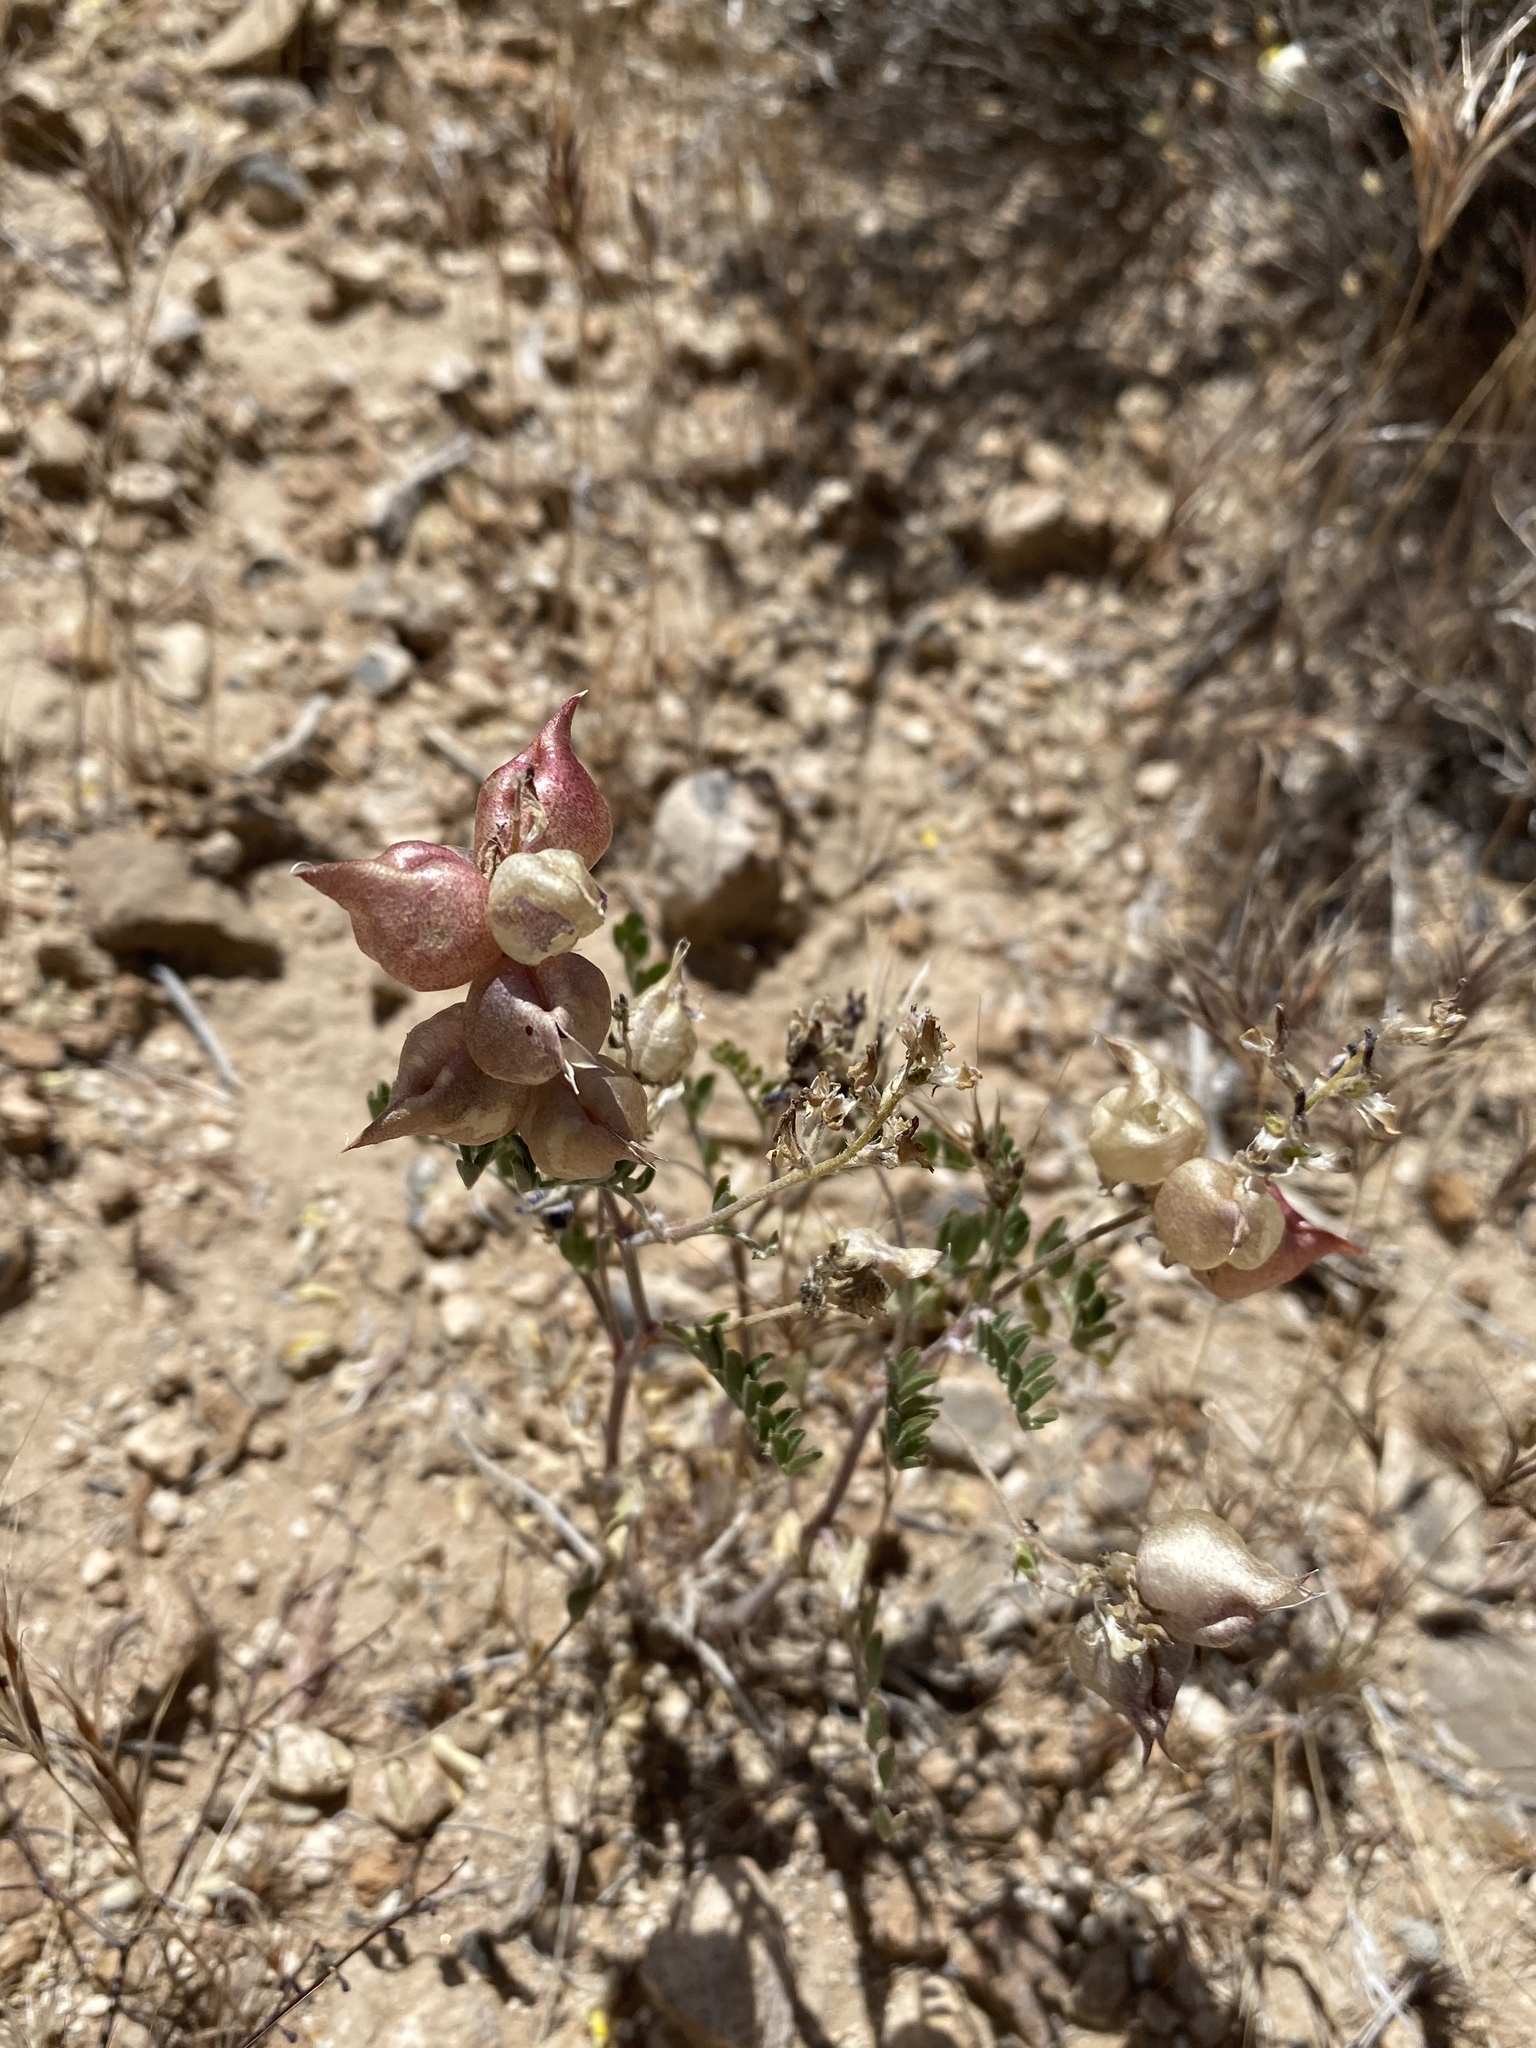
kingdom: Plantae
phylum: Tracheophyta
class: Magnoliopsida
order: Fabales
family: Fabaceae
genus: Astragalus
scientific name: Astragalus lentiginosus
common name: Freckled milkvetch
